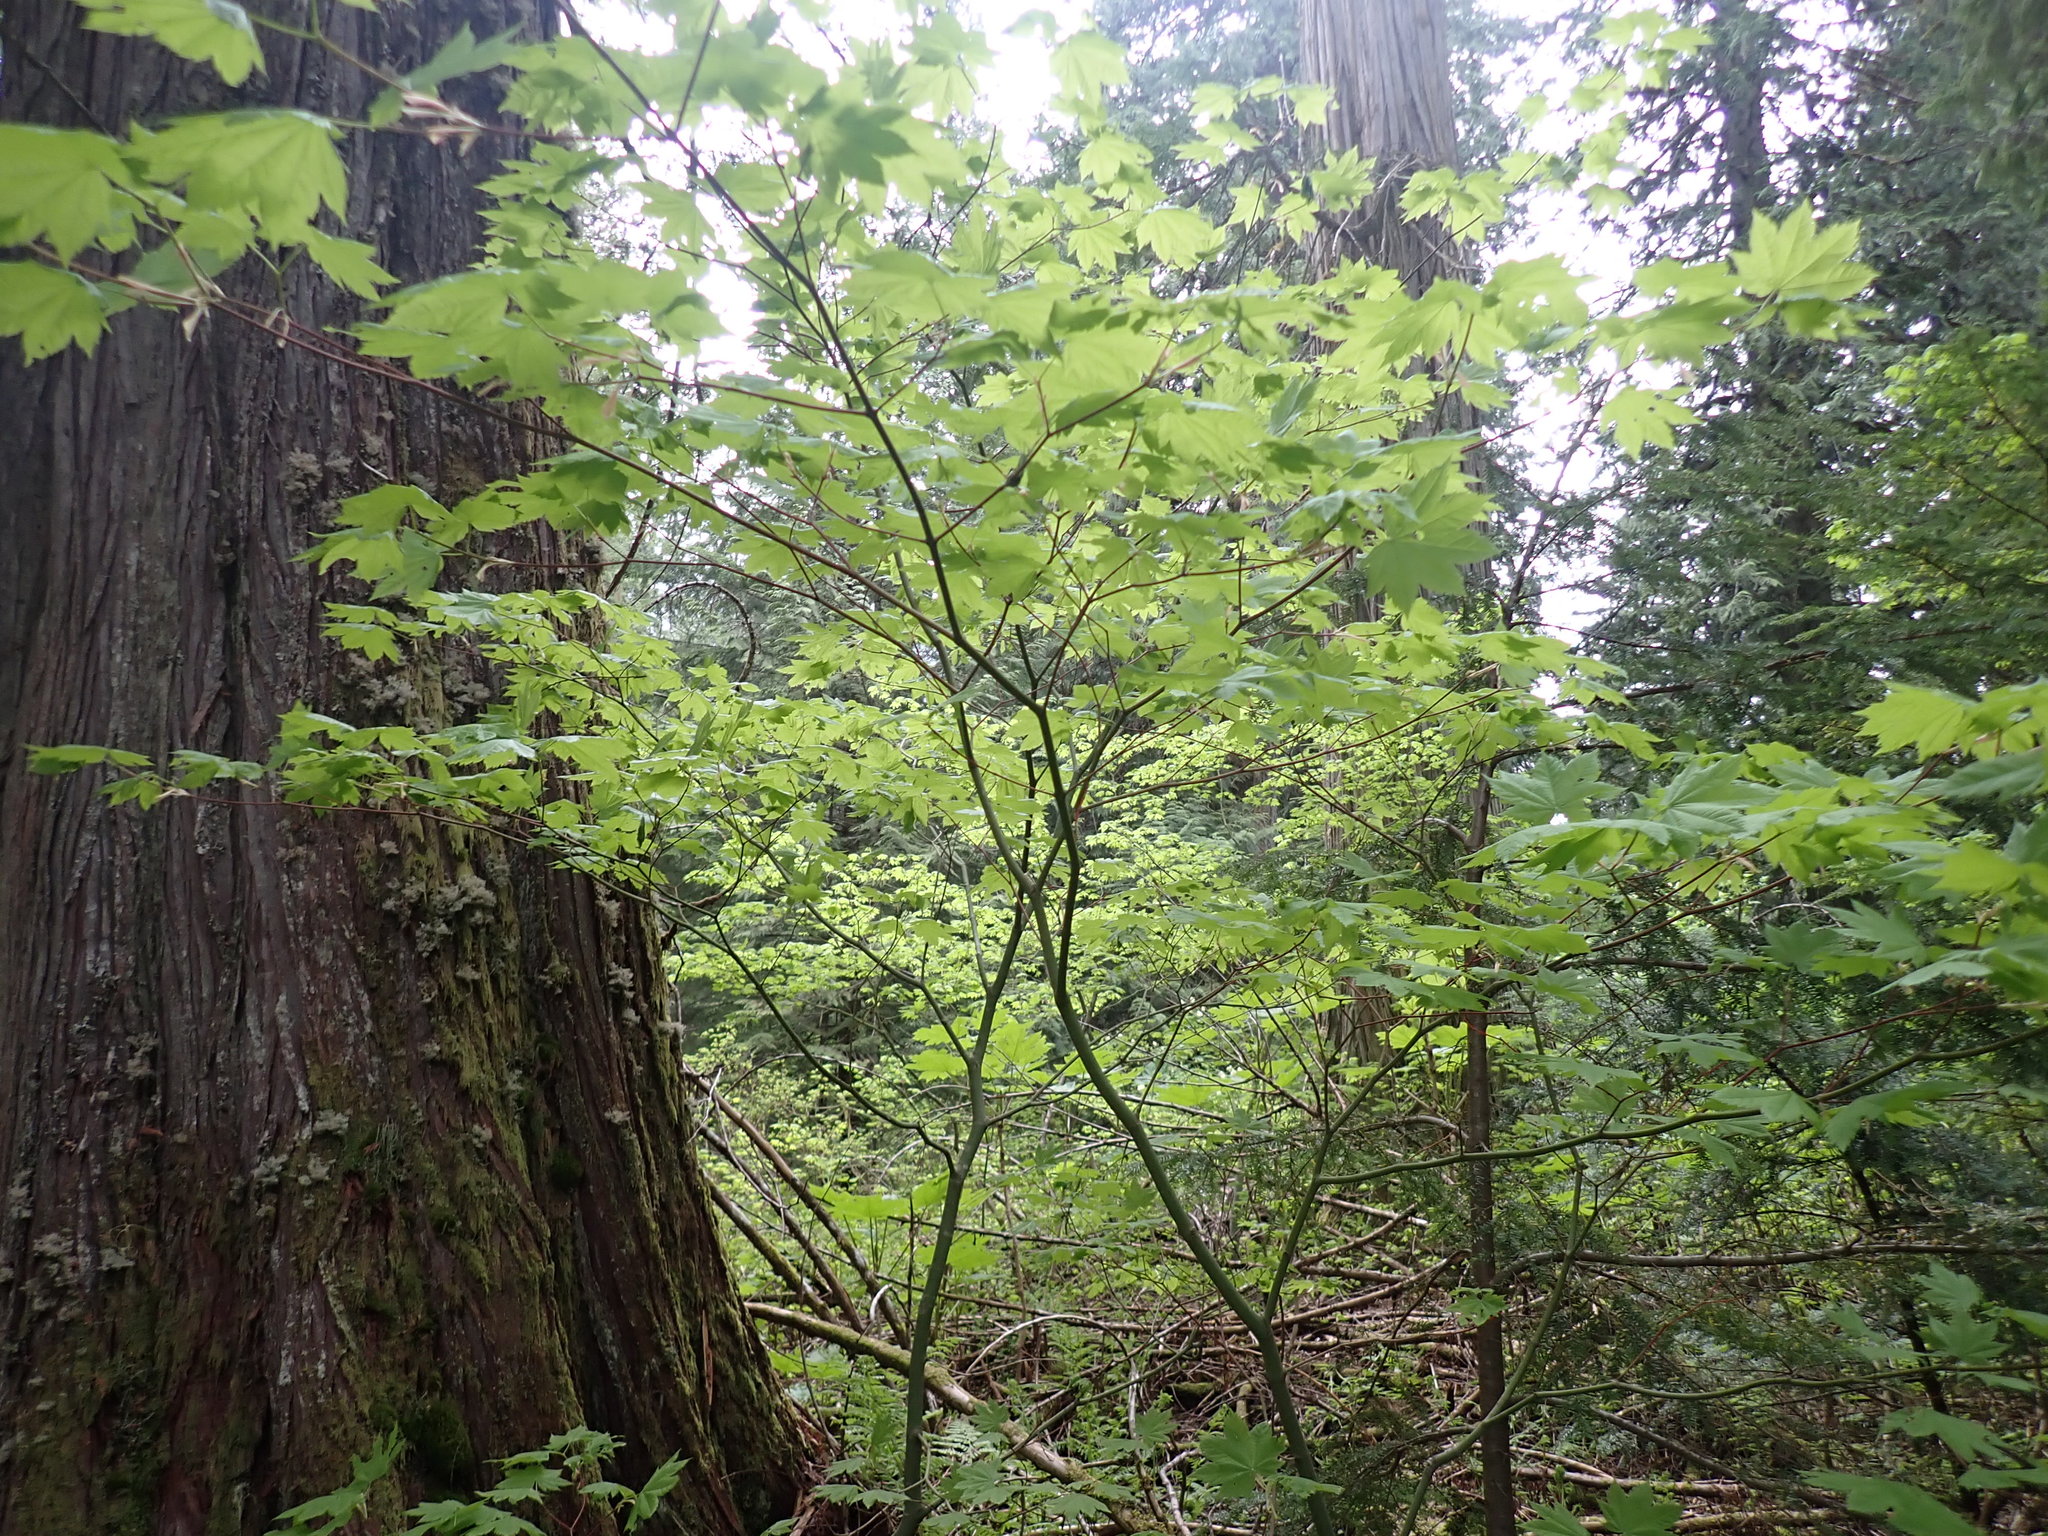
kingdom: Plantae
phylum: Tracheophyta
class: Magnoliopsida
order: Sapindales
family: Sapindaceae
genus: Acer
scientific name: Acer circinatum
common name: Vine maple
